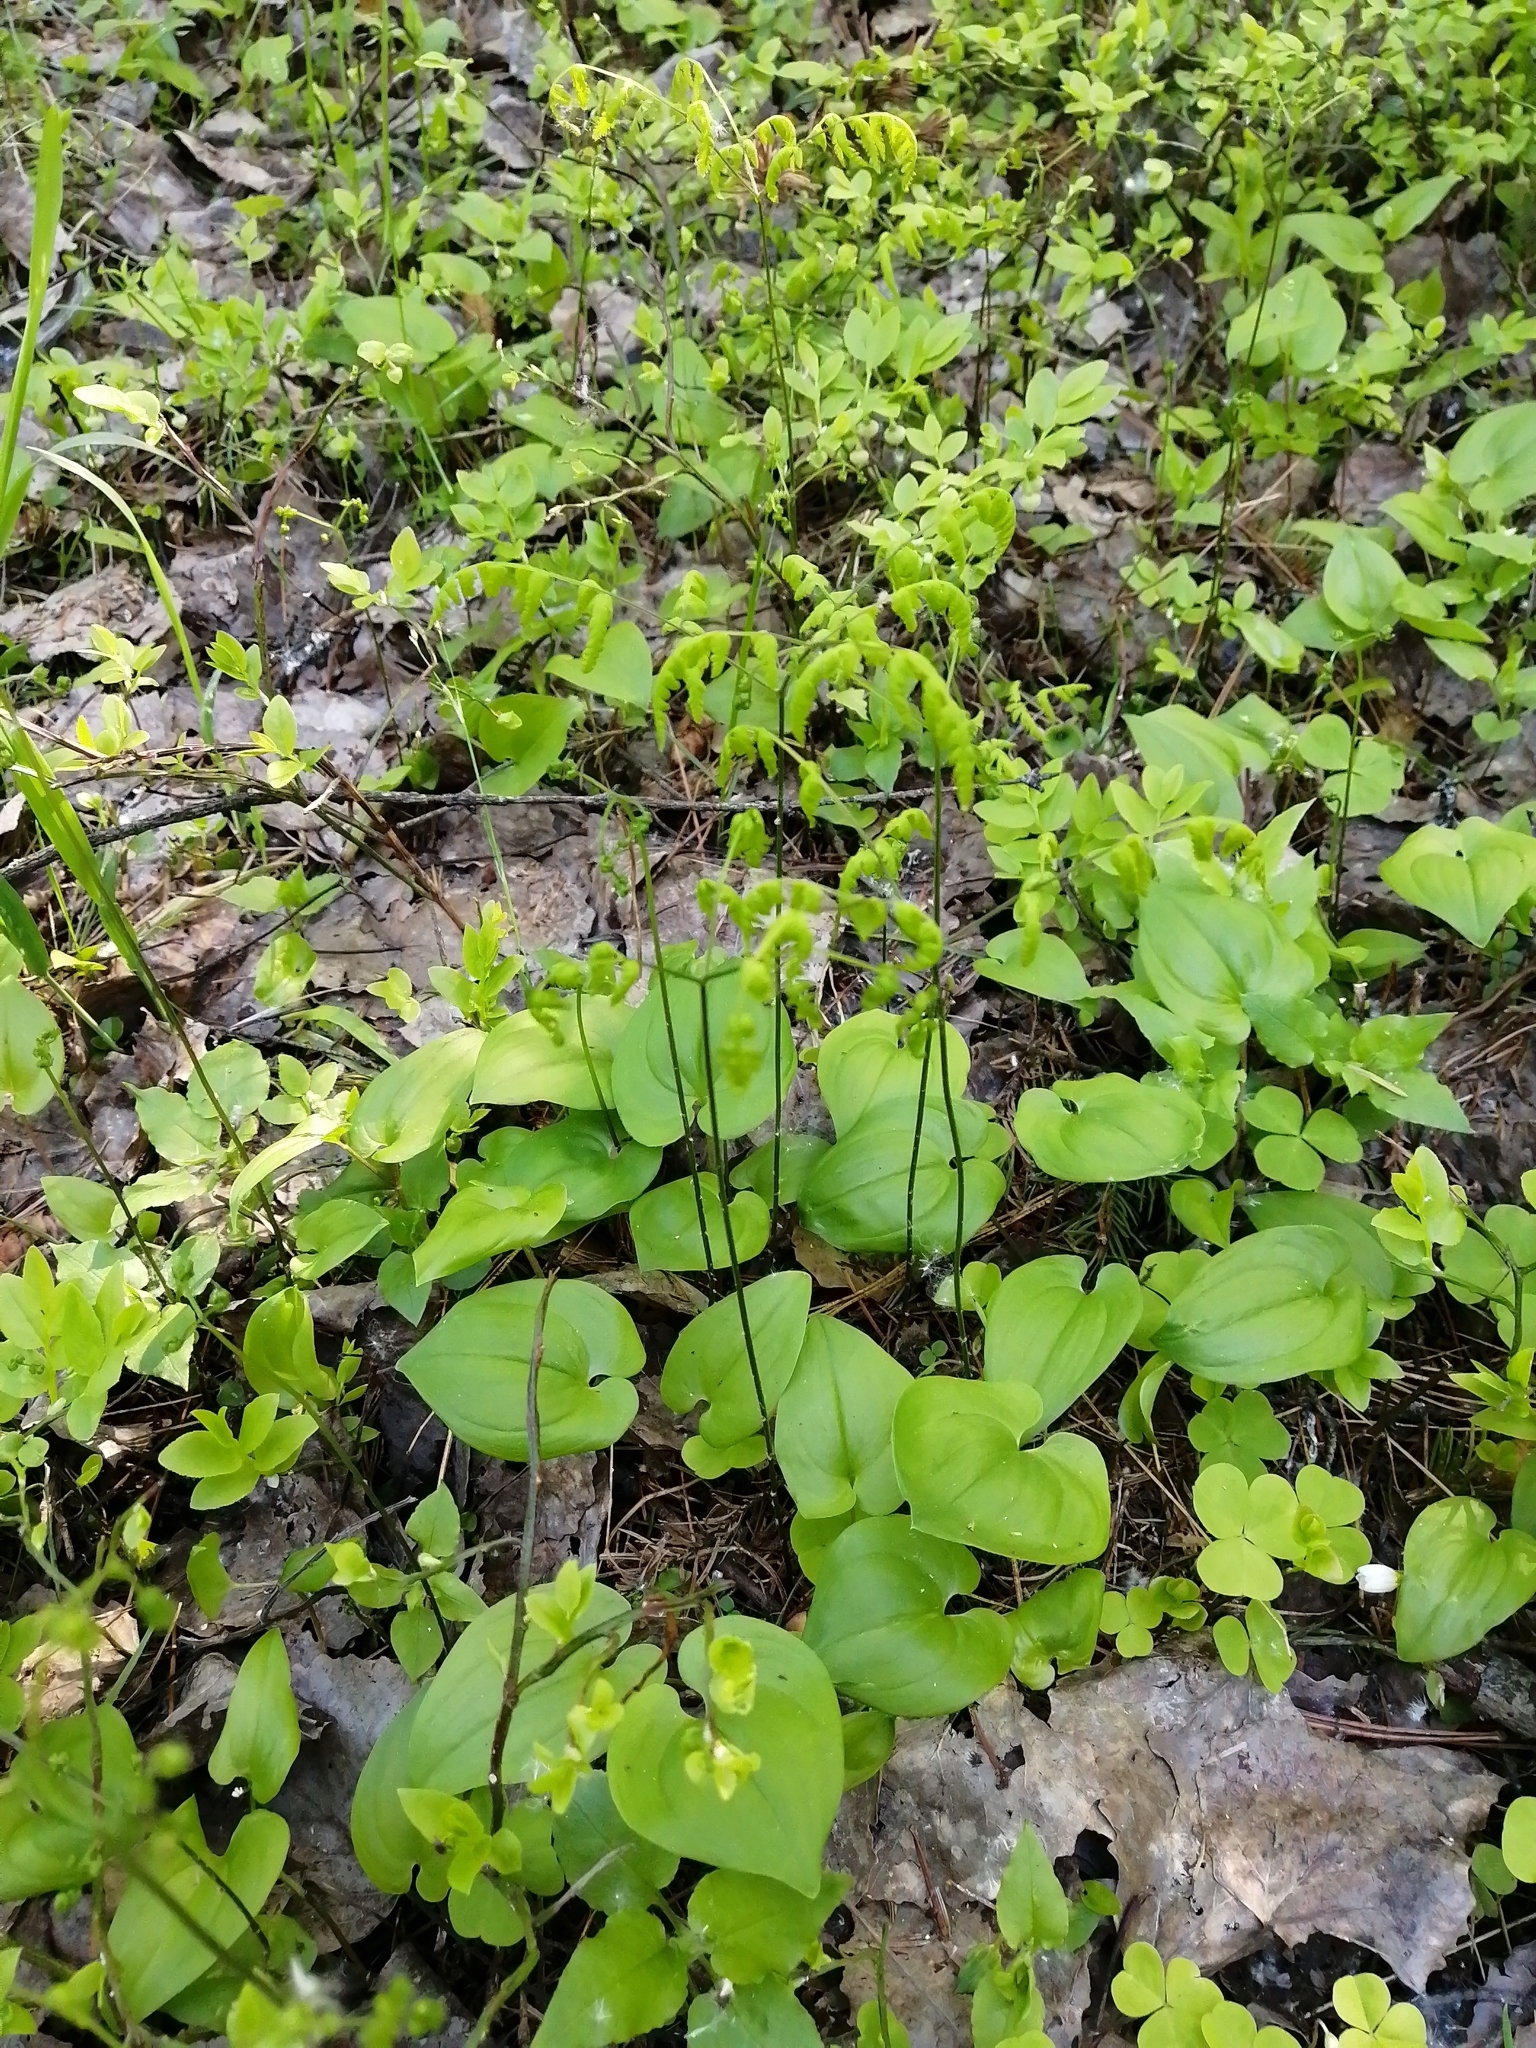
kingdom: Plantae
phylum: Tracheophyta
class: Liliopsida
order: Asparagales
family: Asparagaceae
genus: Maianthemum
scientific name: Maianthemum bifolium
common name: May lily
